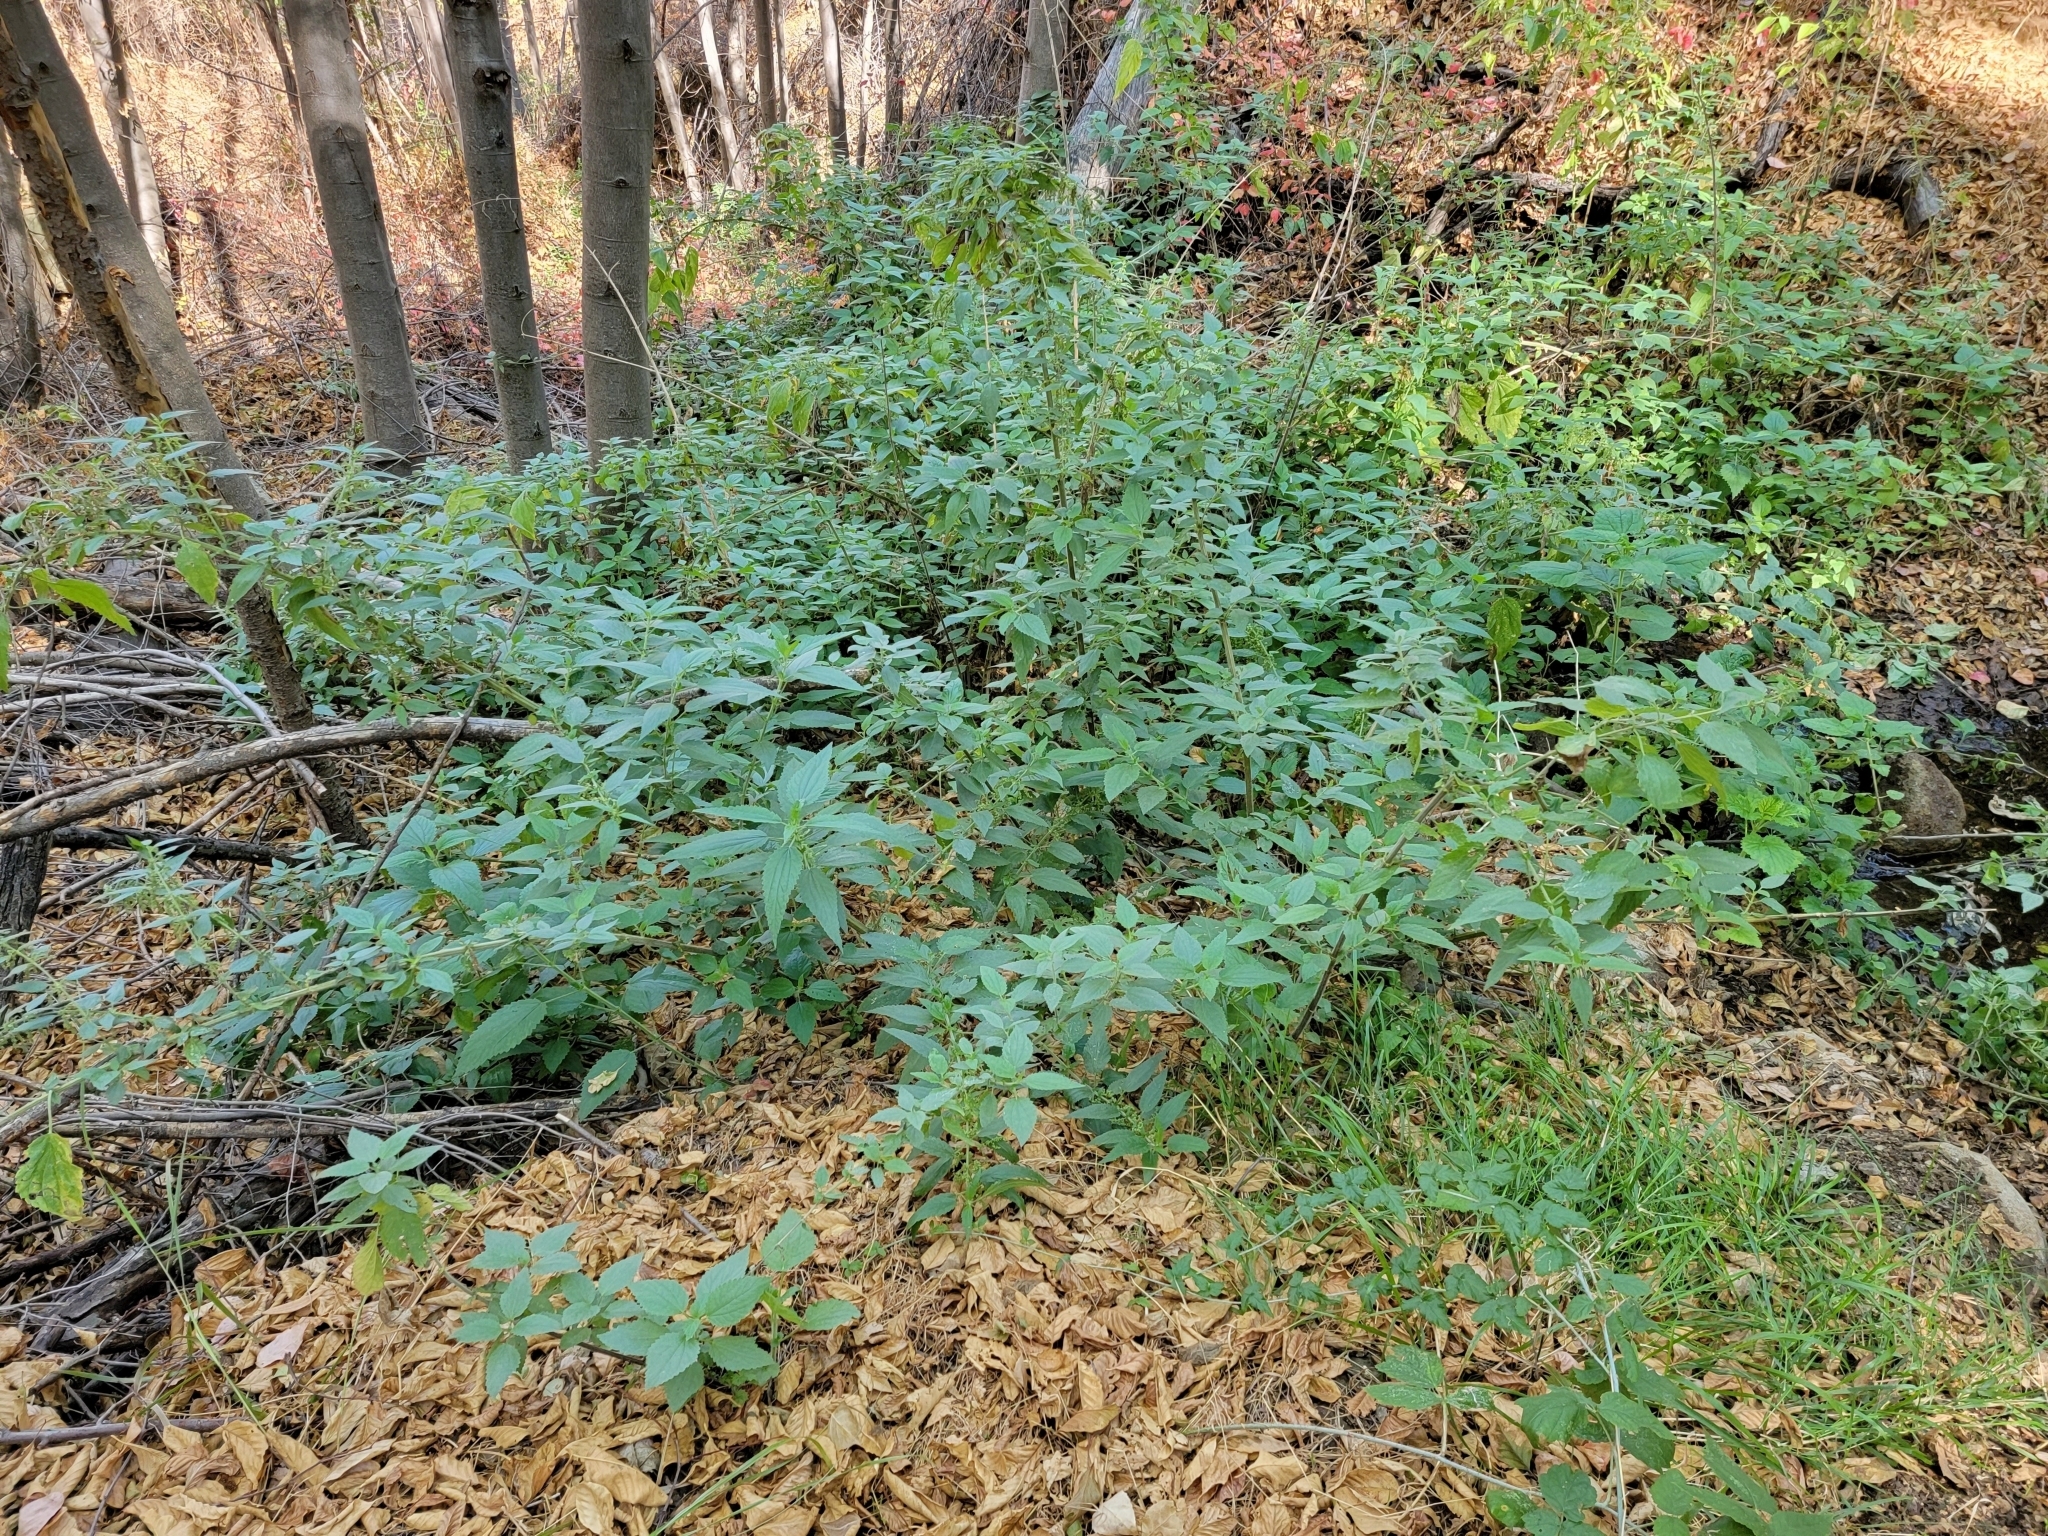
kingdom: Plantae
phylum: Tracheophyta
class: Magnoliopsida
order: Rosales
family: Urticaceae
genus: Urtica
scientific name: Urtica dioica
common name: Common nettle
